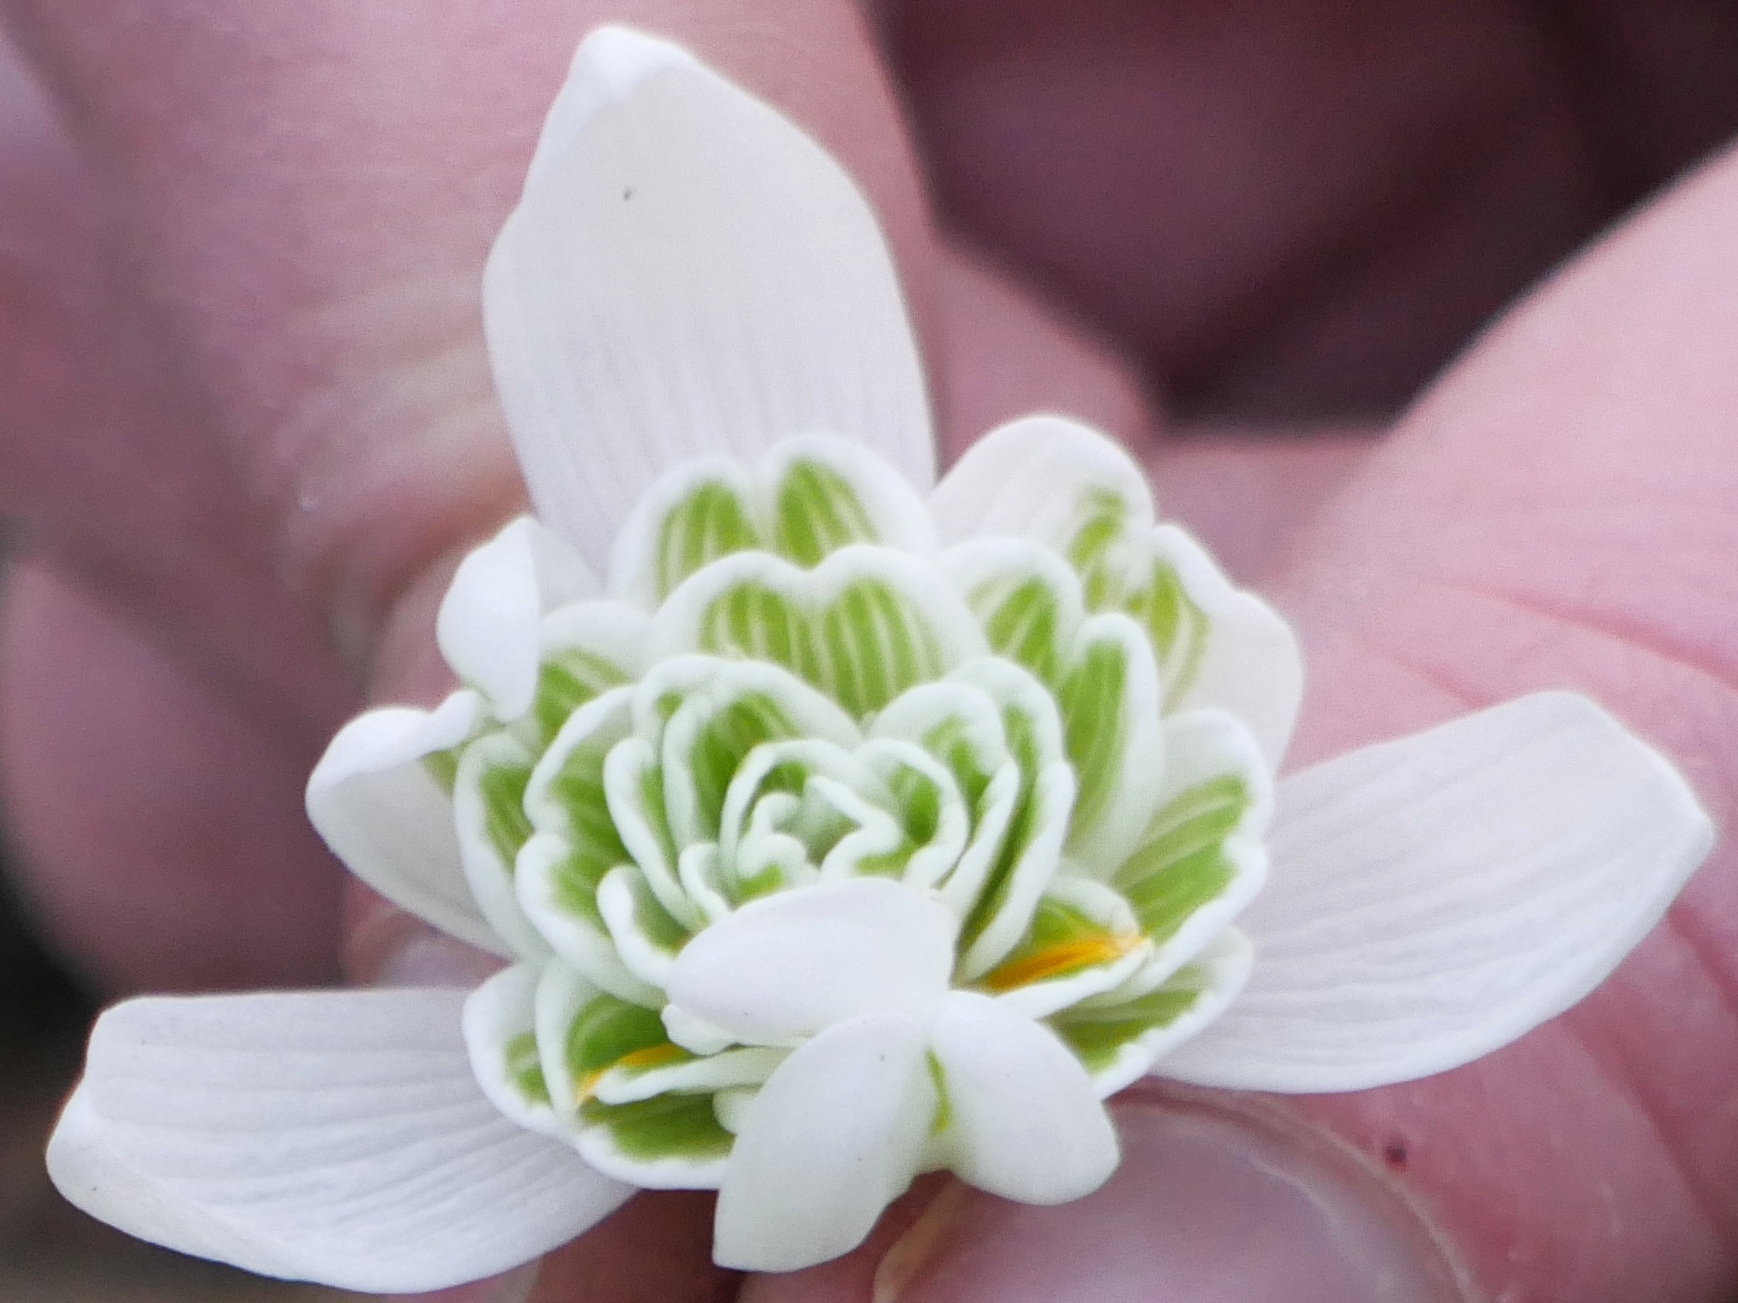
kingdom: Plantae
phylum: Tracheophyta
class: Liliopsida
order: Asparagales
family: Amaryllidaceae
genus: Galanthus
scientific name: Galanthus nivalis
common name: Snowdrop
